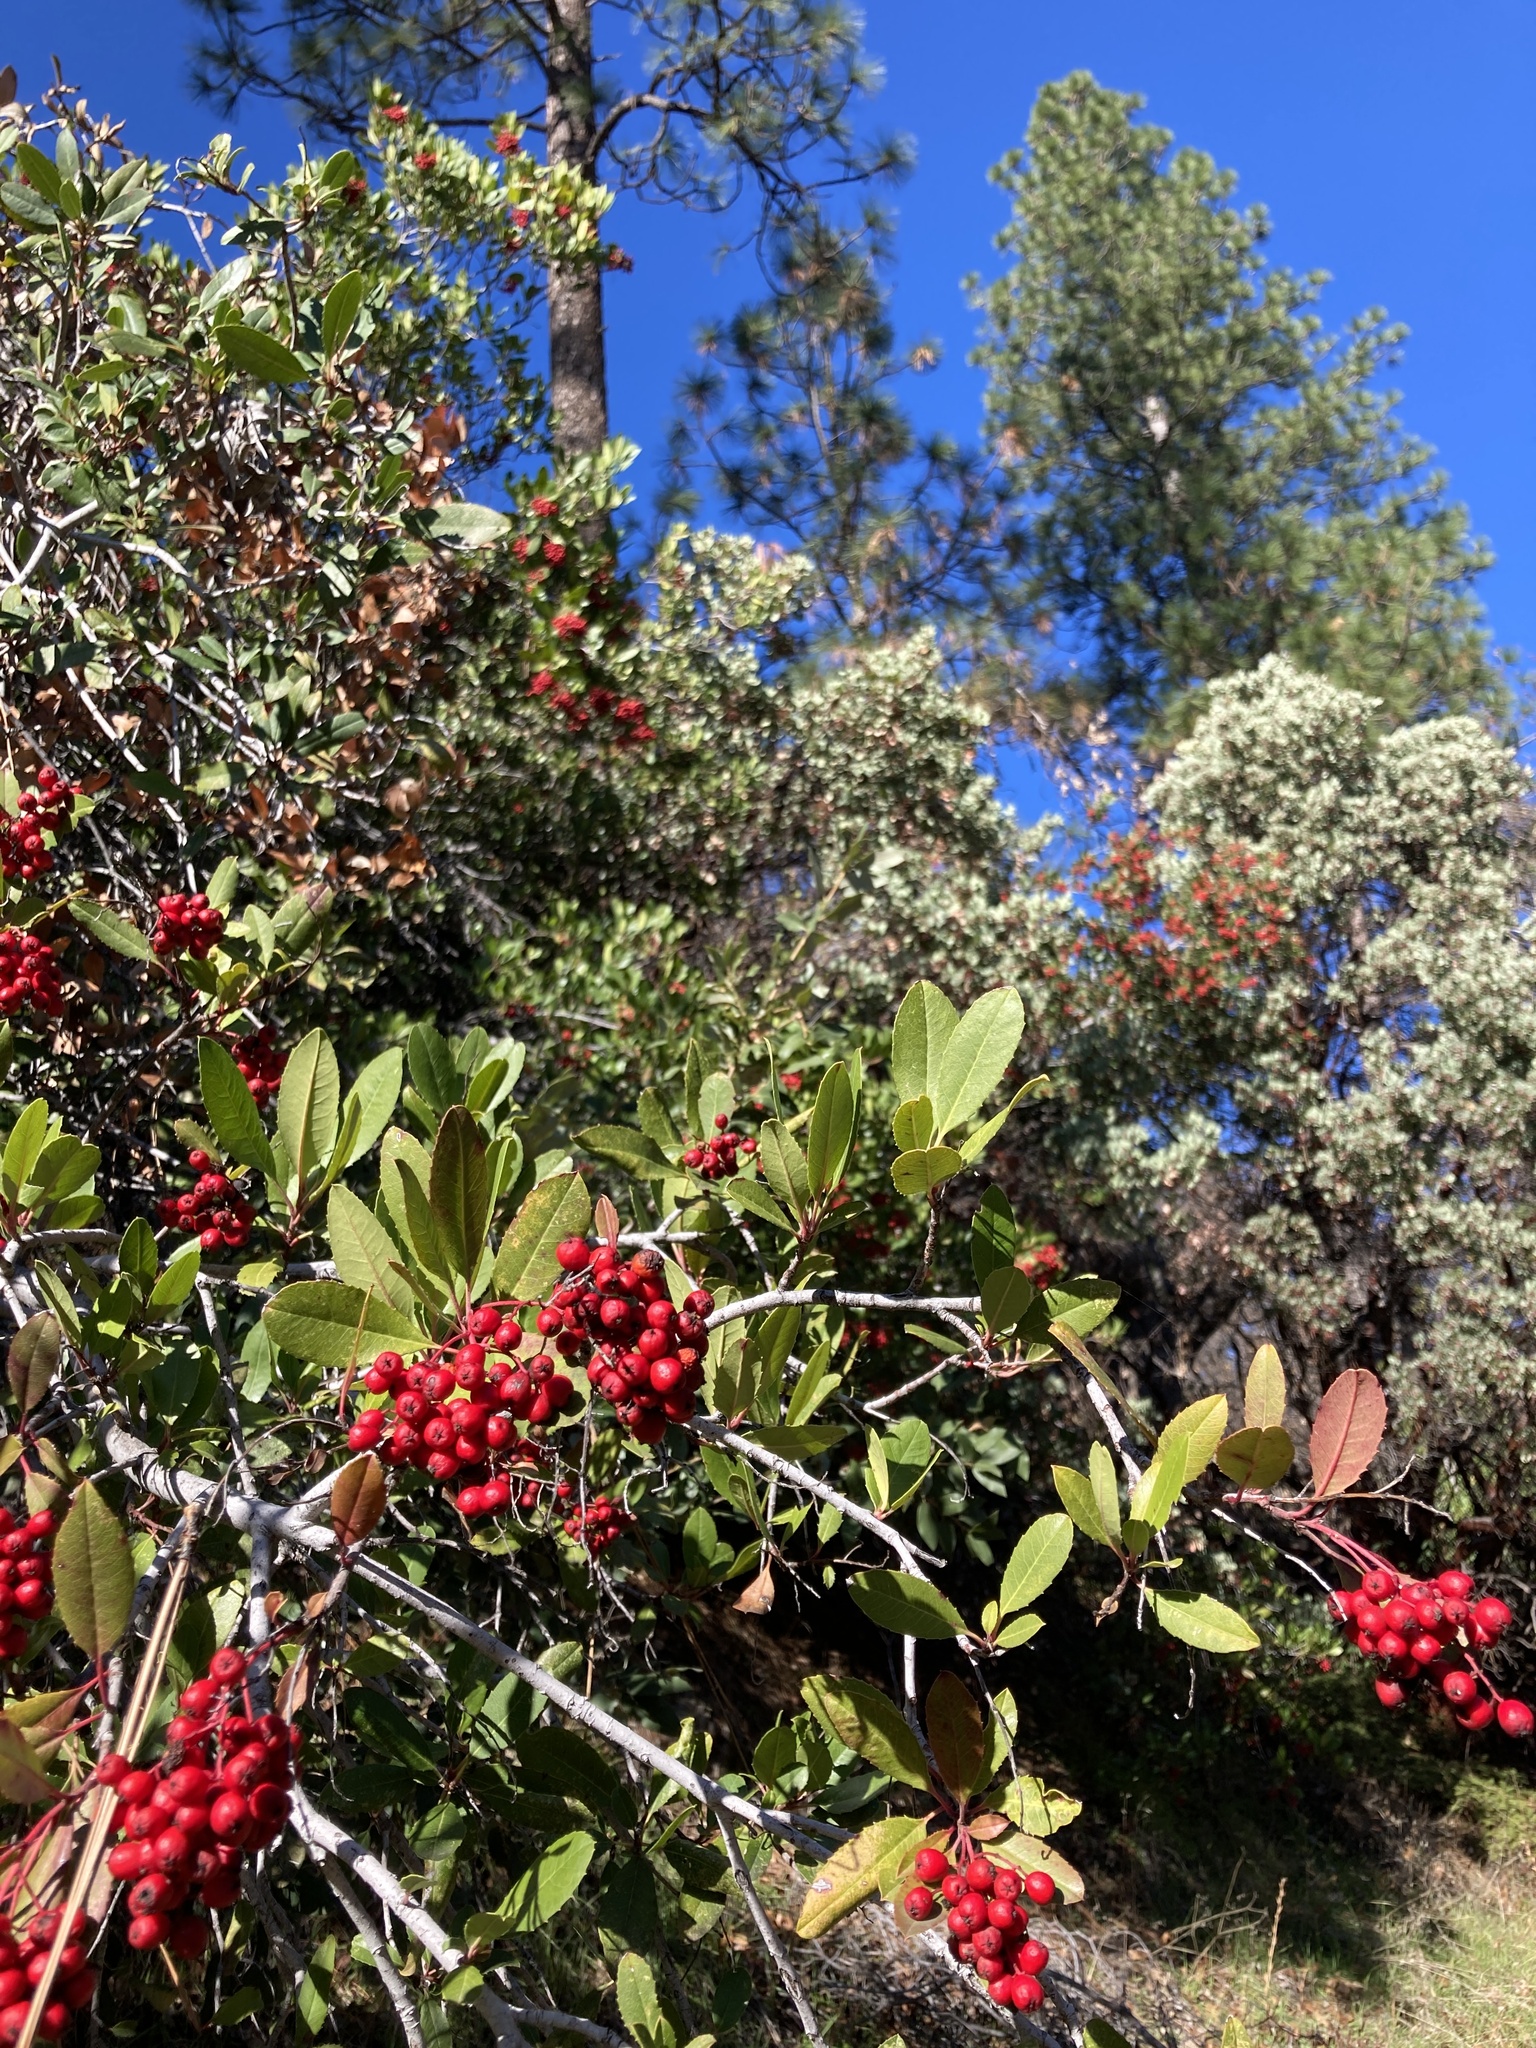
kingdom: Plantae
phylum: Tracheophyta
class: Magnoliopsida
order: Rosales
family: Rosaceae
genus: Heteromeles
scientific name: Heteromeles arbutifolia
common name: California-holly
